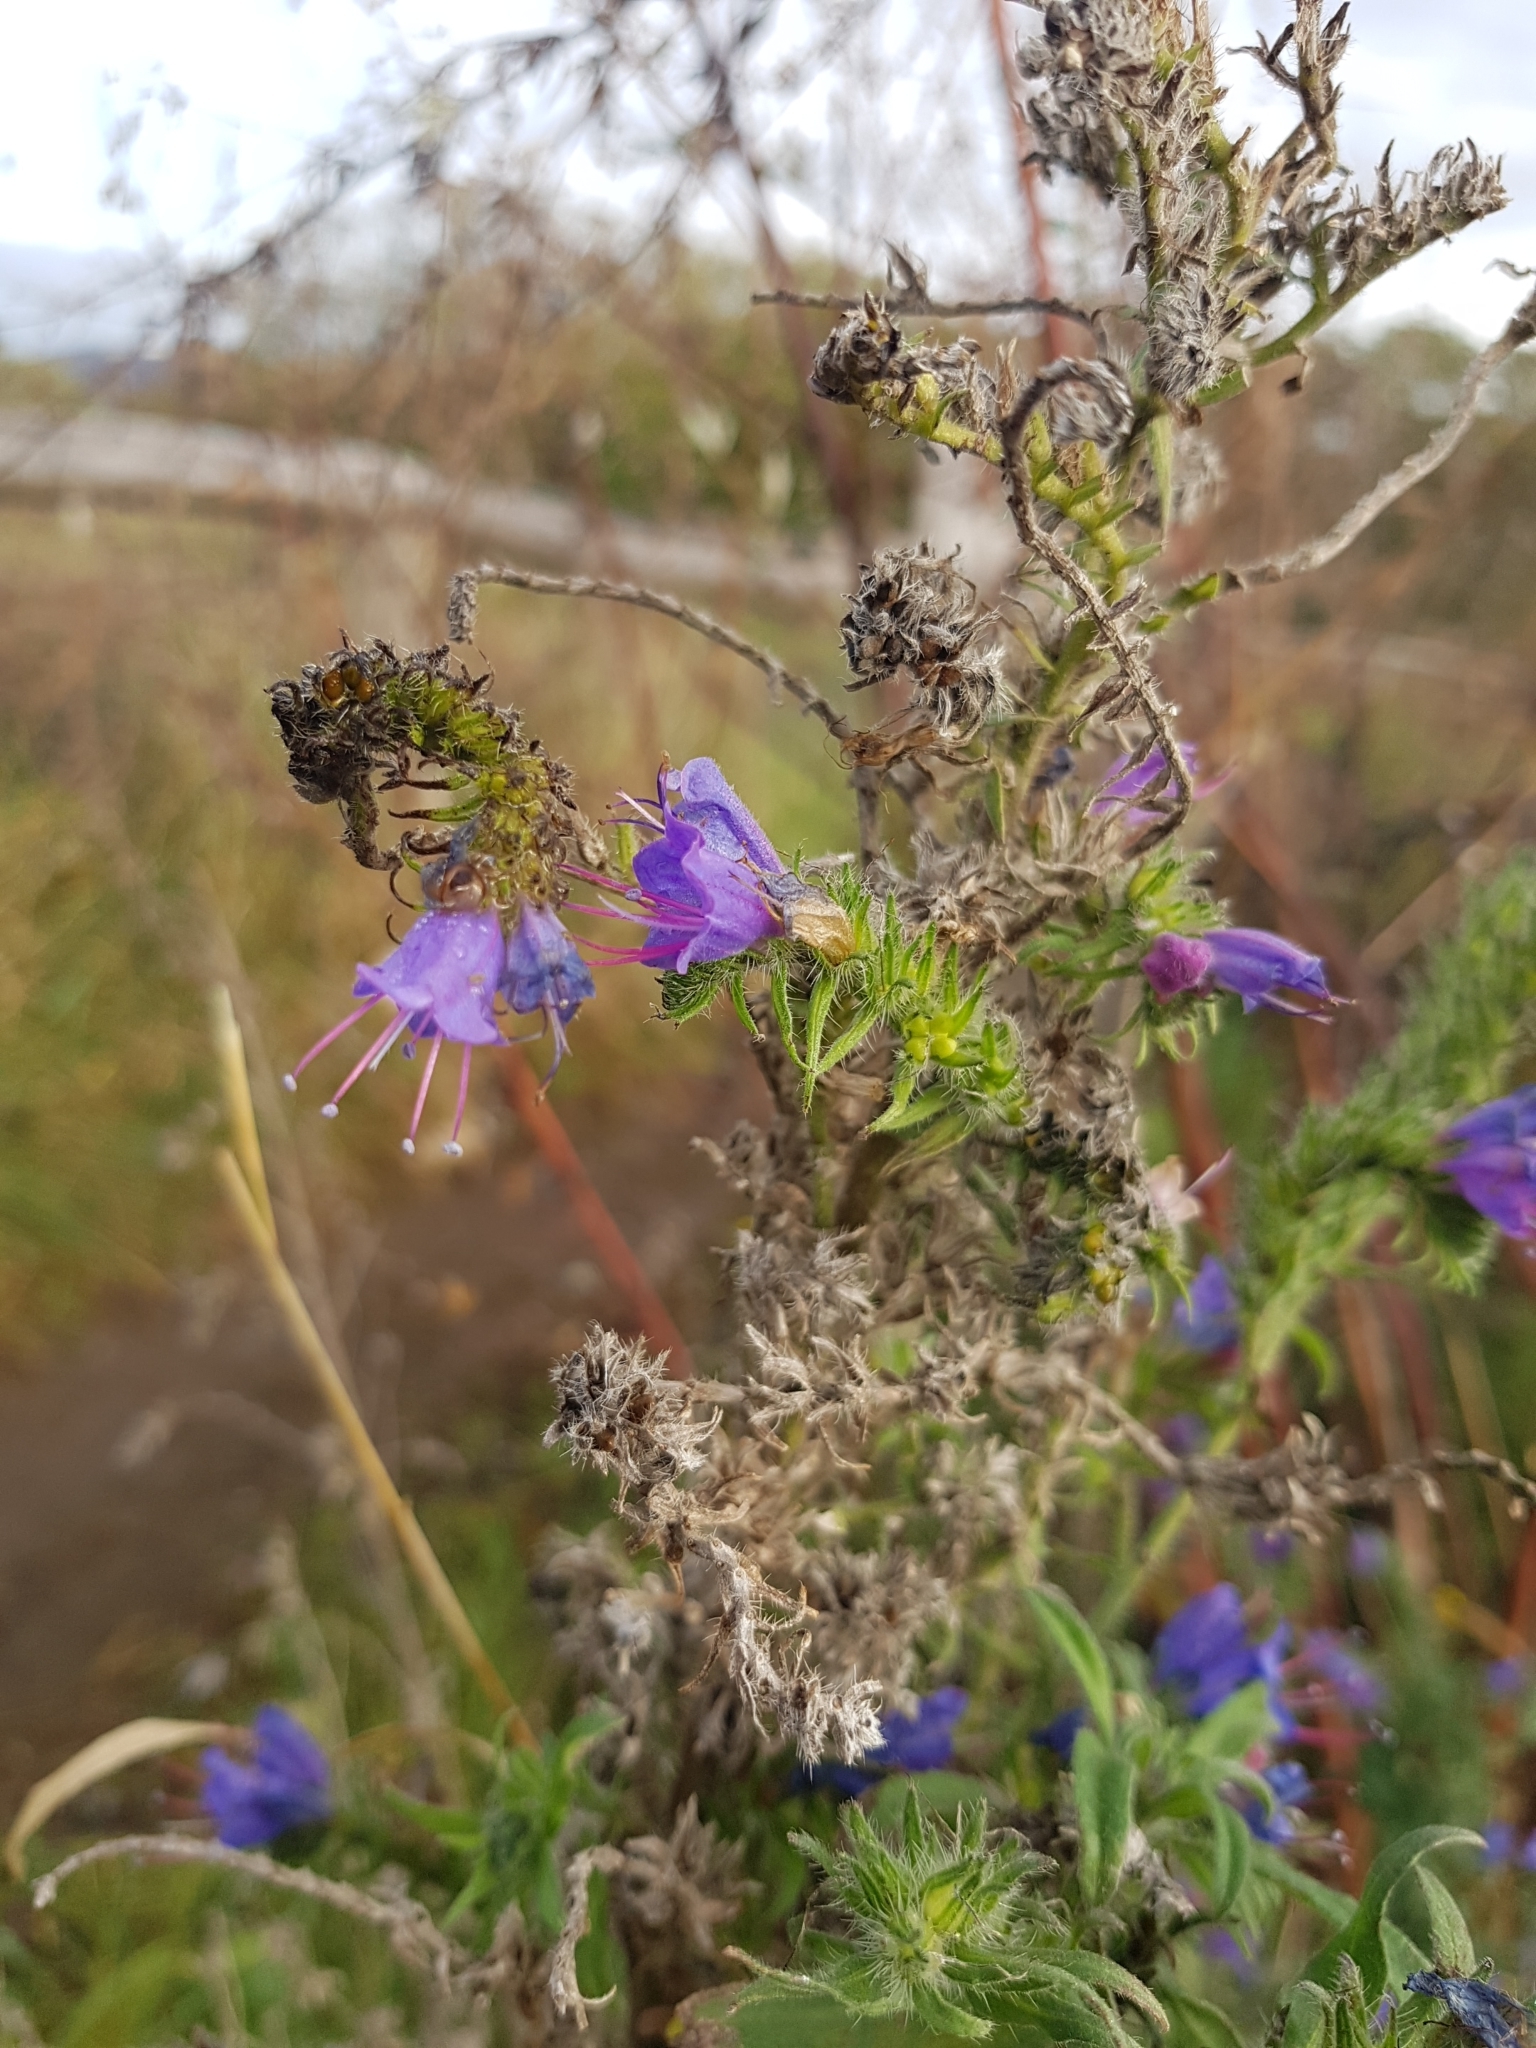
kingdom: Plantae
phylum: Tracheophyta
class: Magnoliopsida
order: Boraginales
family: Boraginaceae
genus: Echium
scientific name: Echium vulgare
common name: Common viper's bugloss
